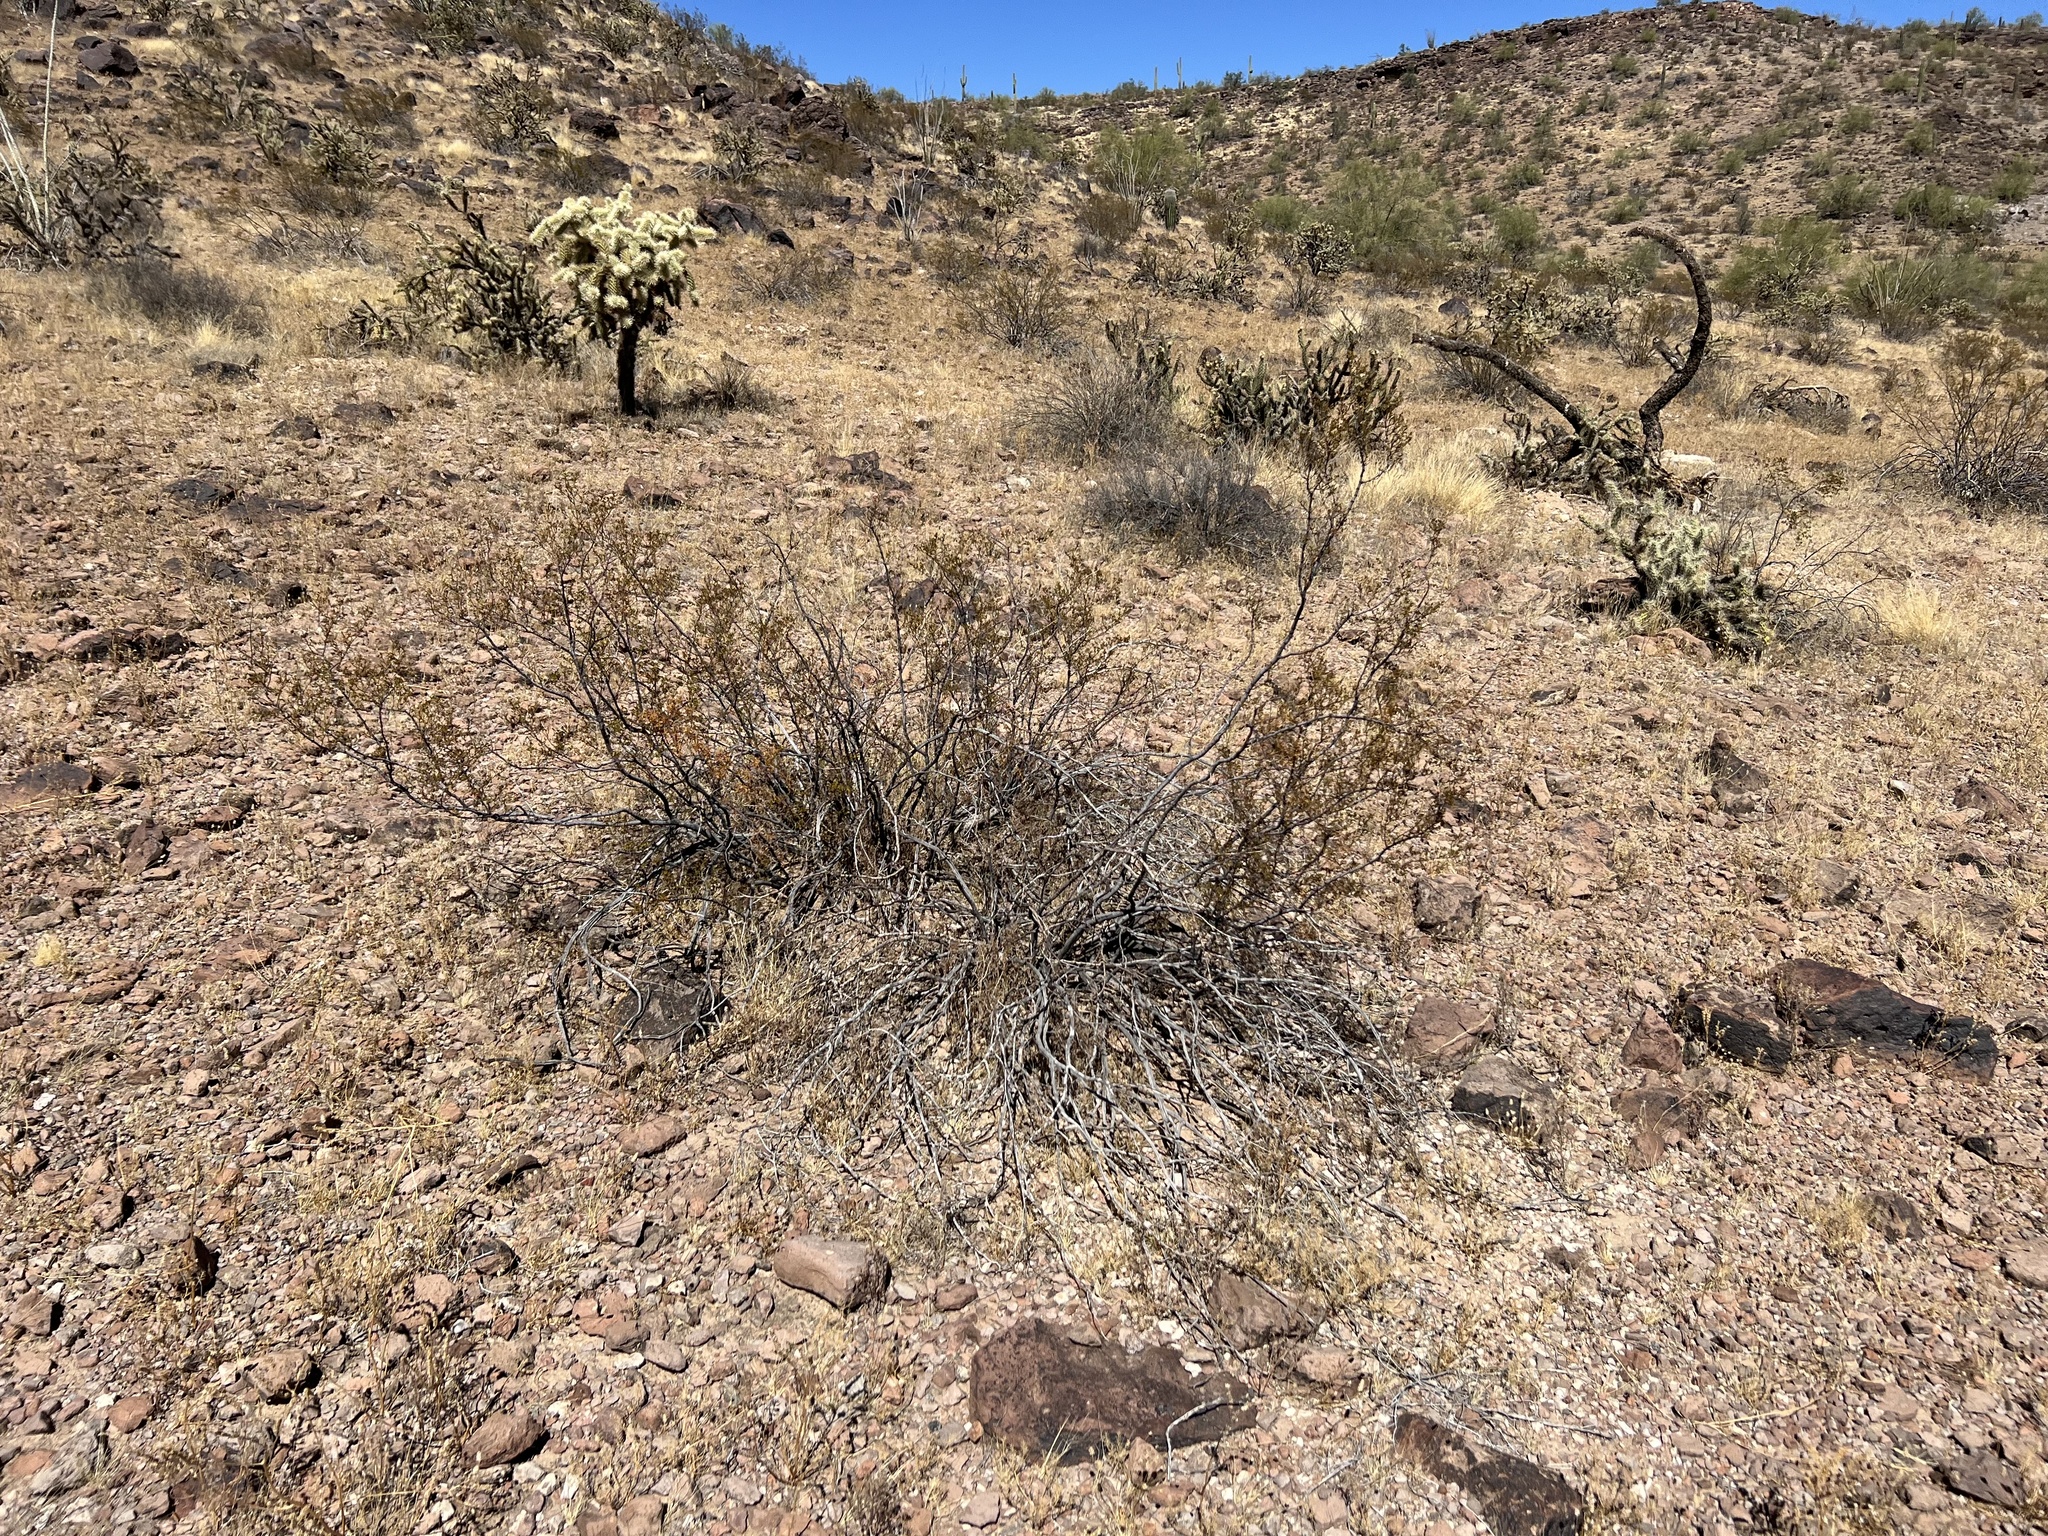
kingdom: Plantae
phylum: Tracheophyta
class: Magnoliopsida
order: Zygophyllales
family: Zygophyllaceae
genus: Larrea
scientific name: Larrea tridentata
